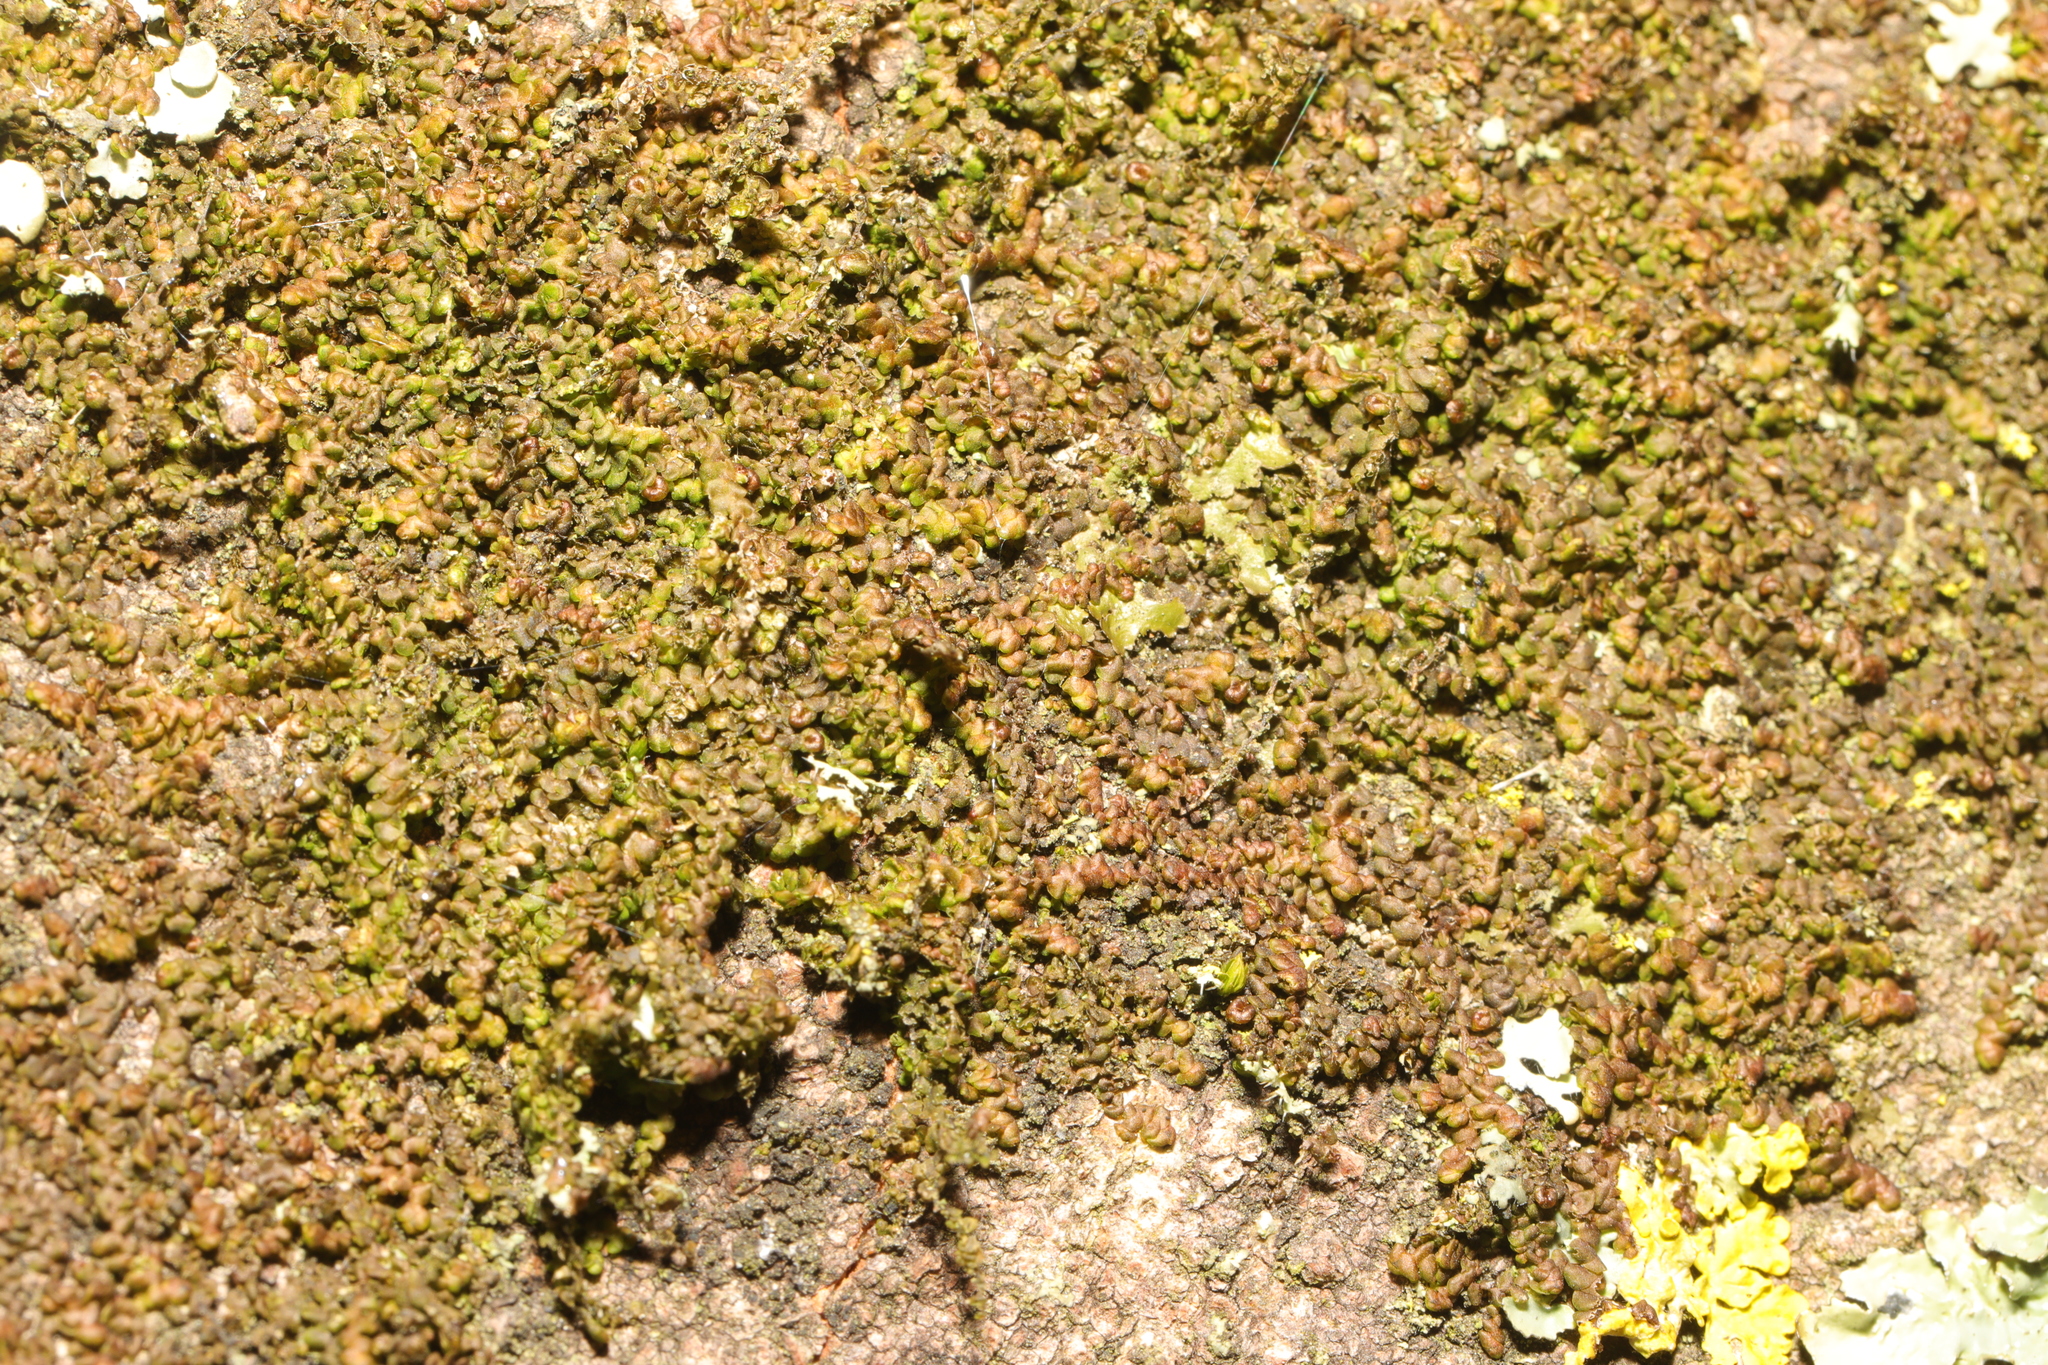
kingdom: Plantae
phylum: Marchantiophyta
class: Jungermanniopsida
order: Porellales
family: Frullaniaceae
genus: Frullania
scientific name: Frullania dilatata
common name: Dilated scalewort
